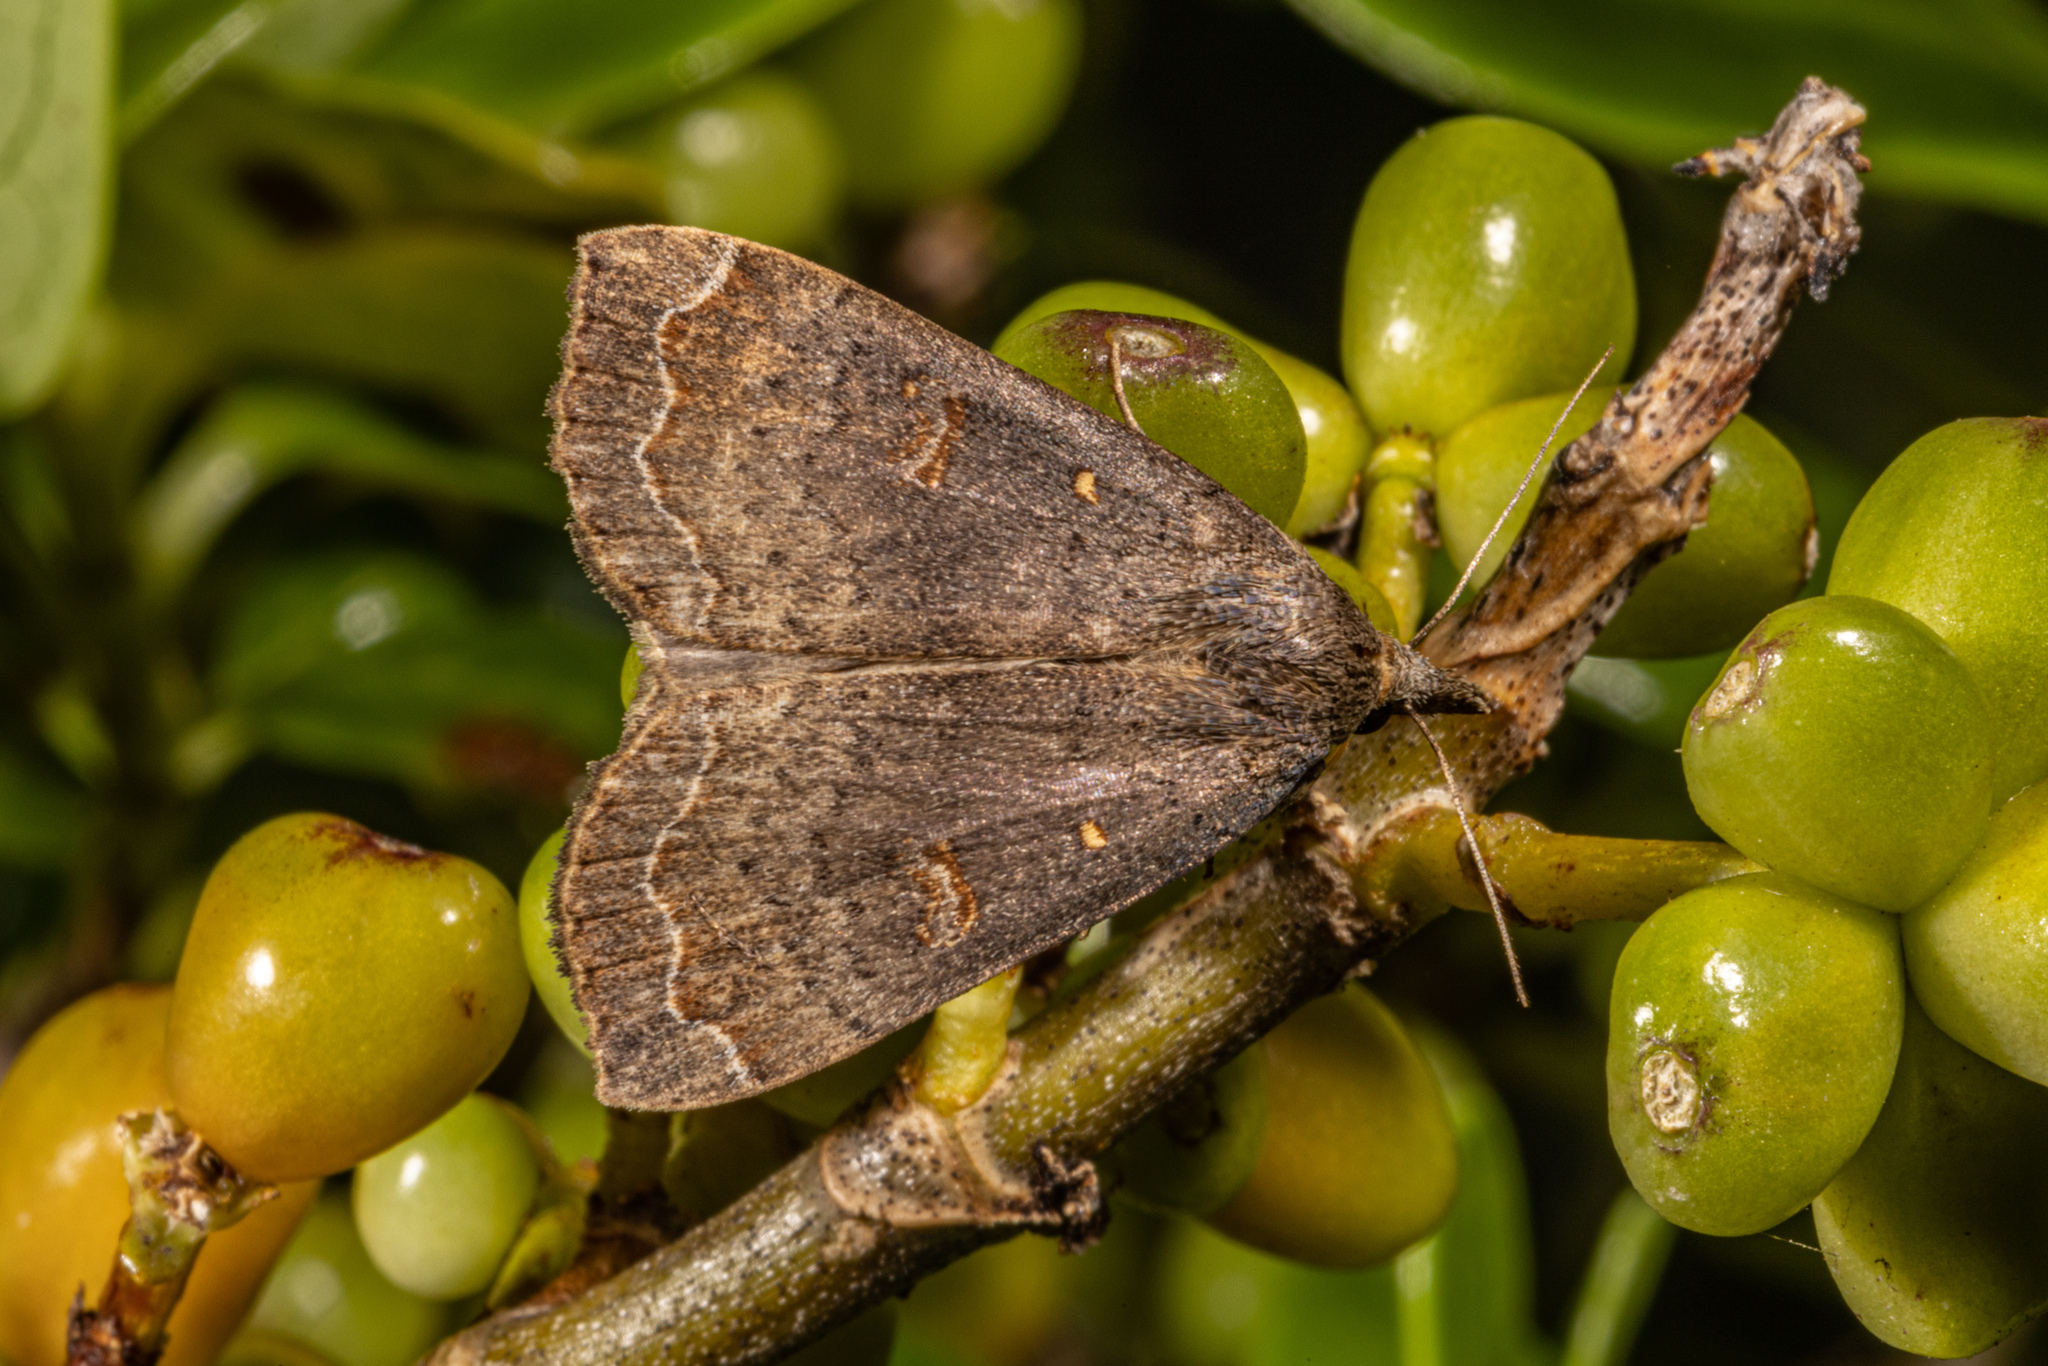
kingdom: Animalia
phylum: Arthropoda
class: Insecta
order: Lepidoptera
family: Erebidae
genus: Rhapsa
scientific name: Rhapsa scotosialis
